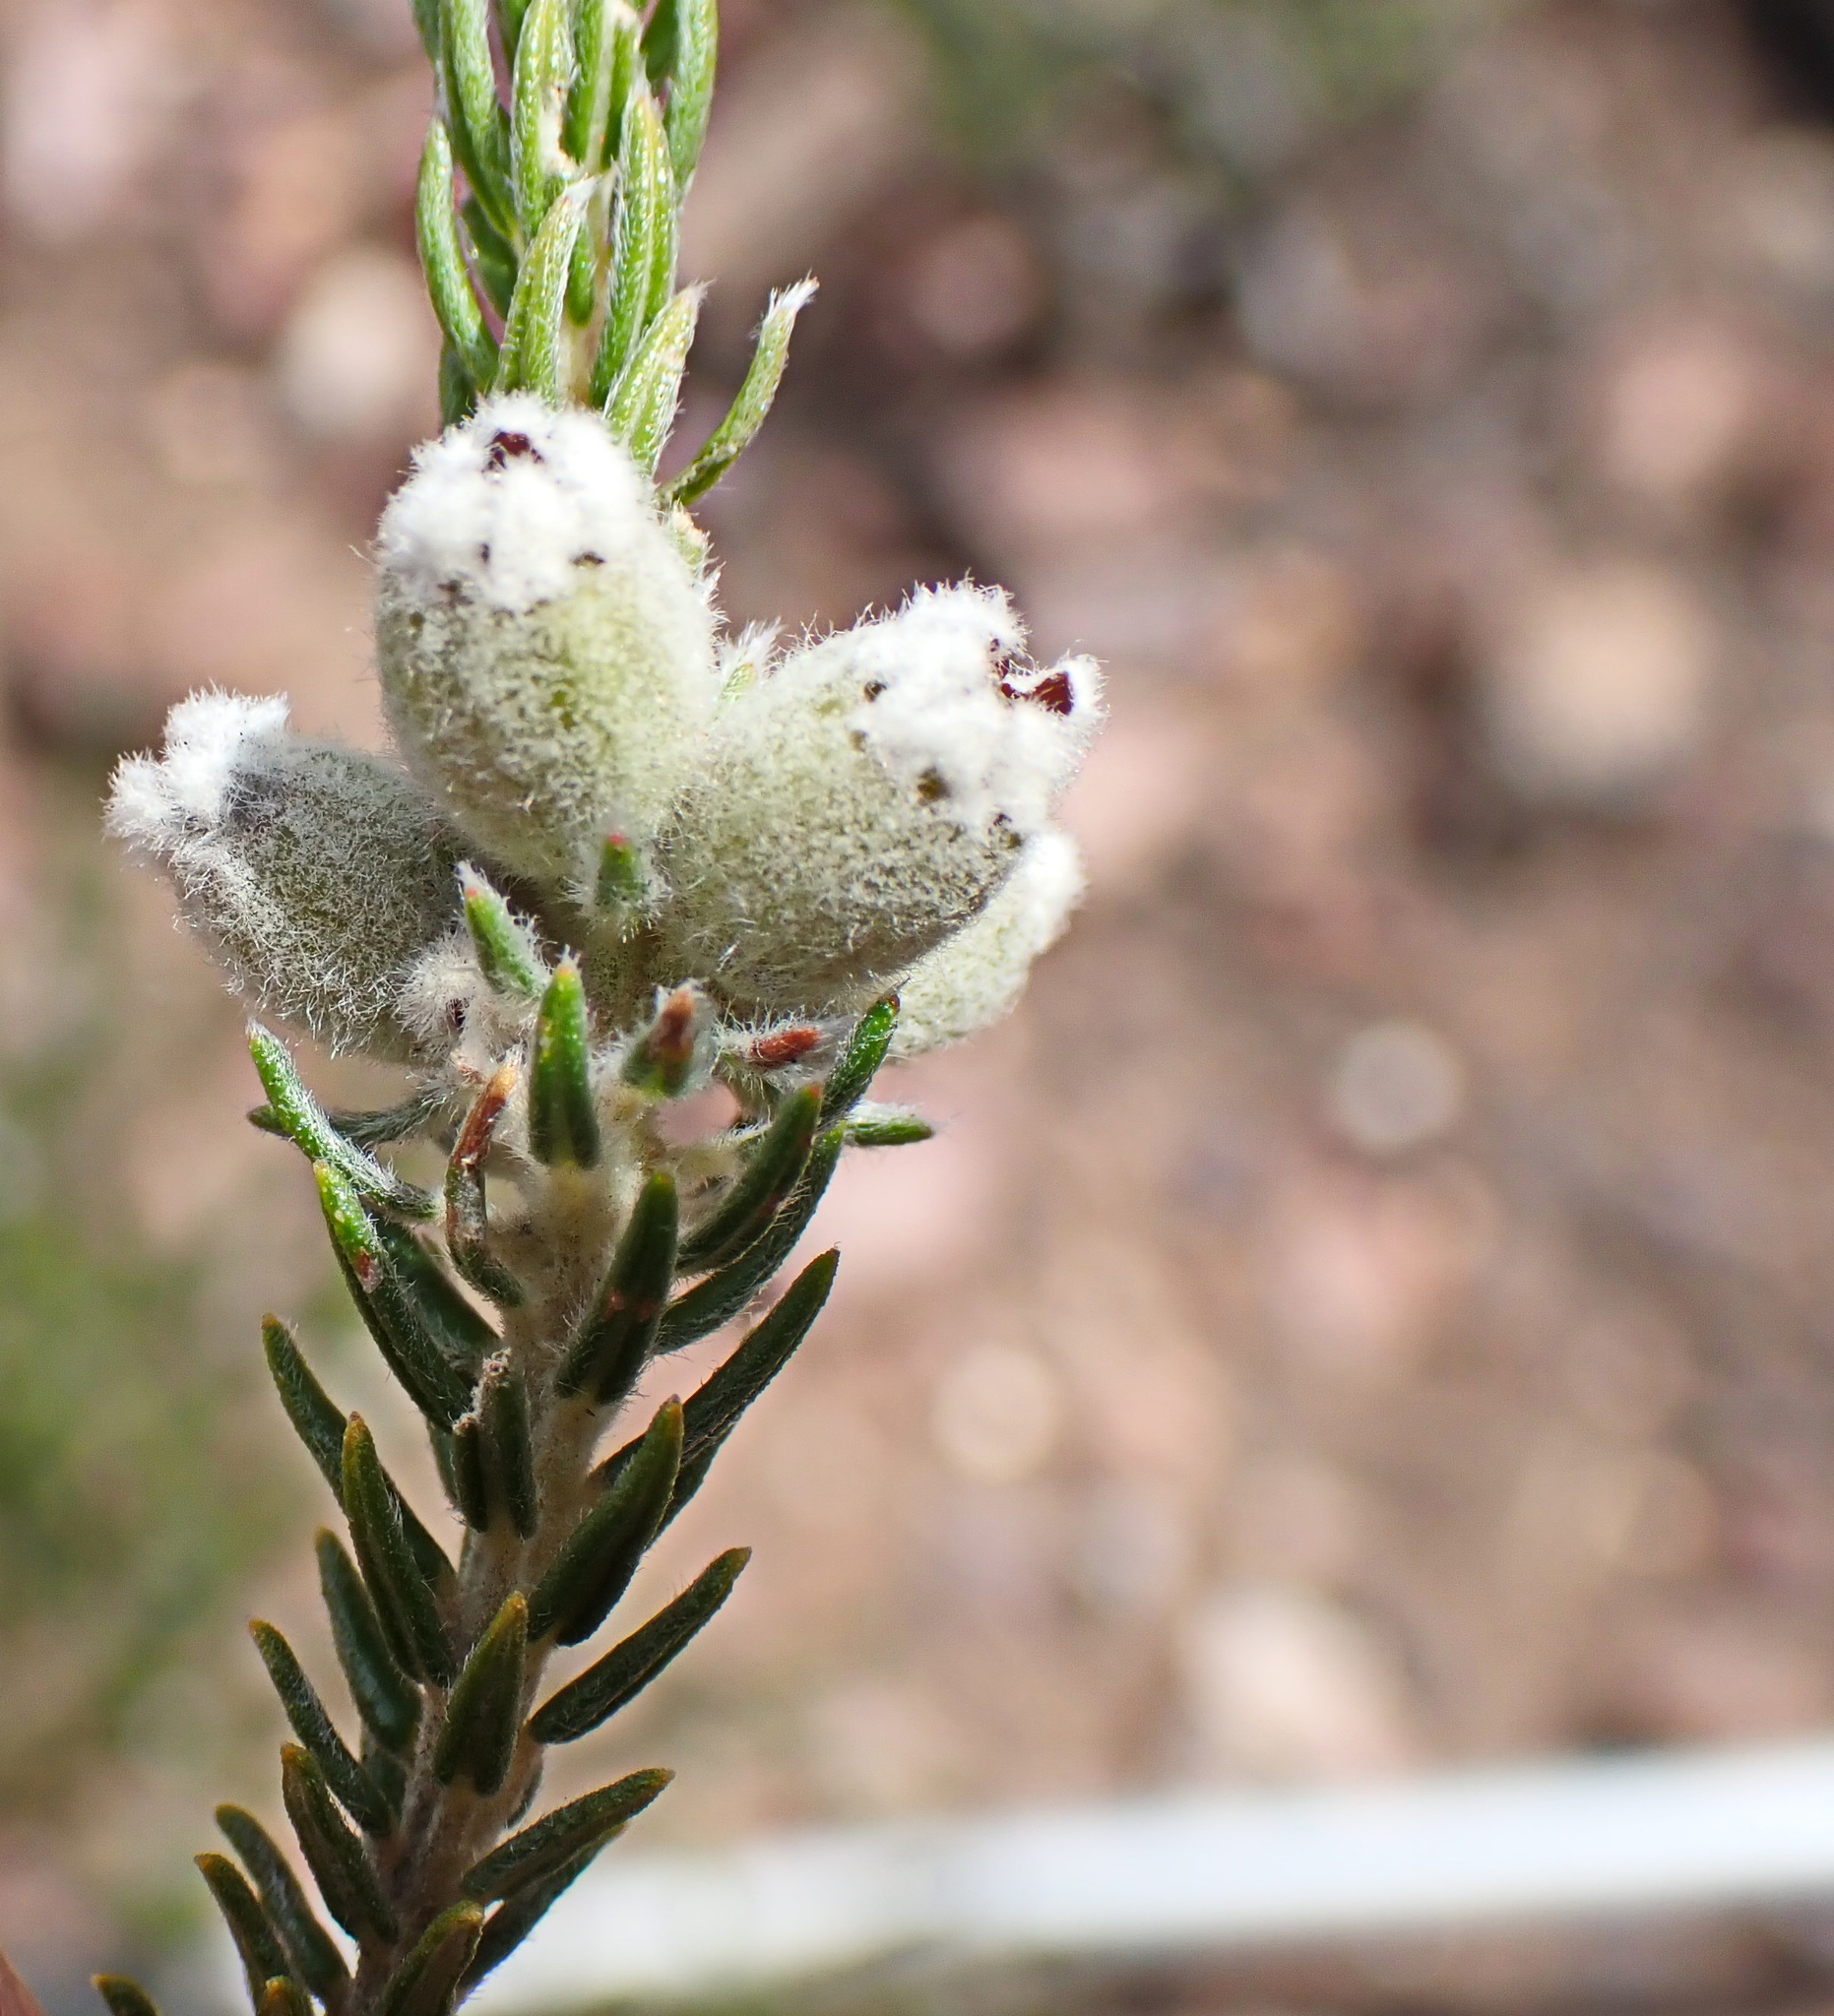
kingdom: Plantae
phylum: Tracheophyta
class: Magnoliopsida
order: Rosales
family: Rhamnaceae
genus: Phylica
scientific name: Phylica purpurea
